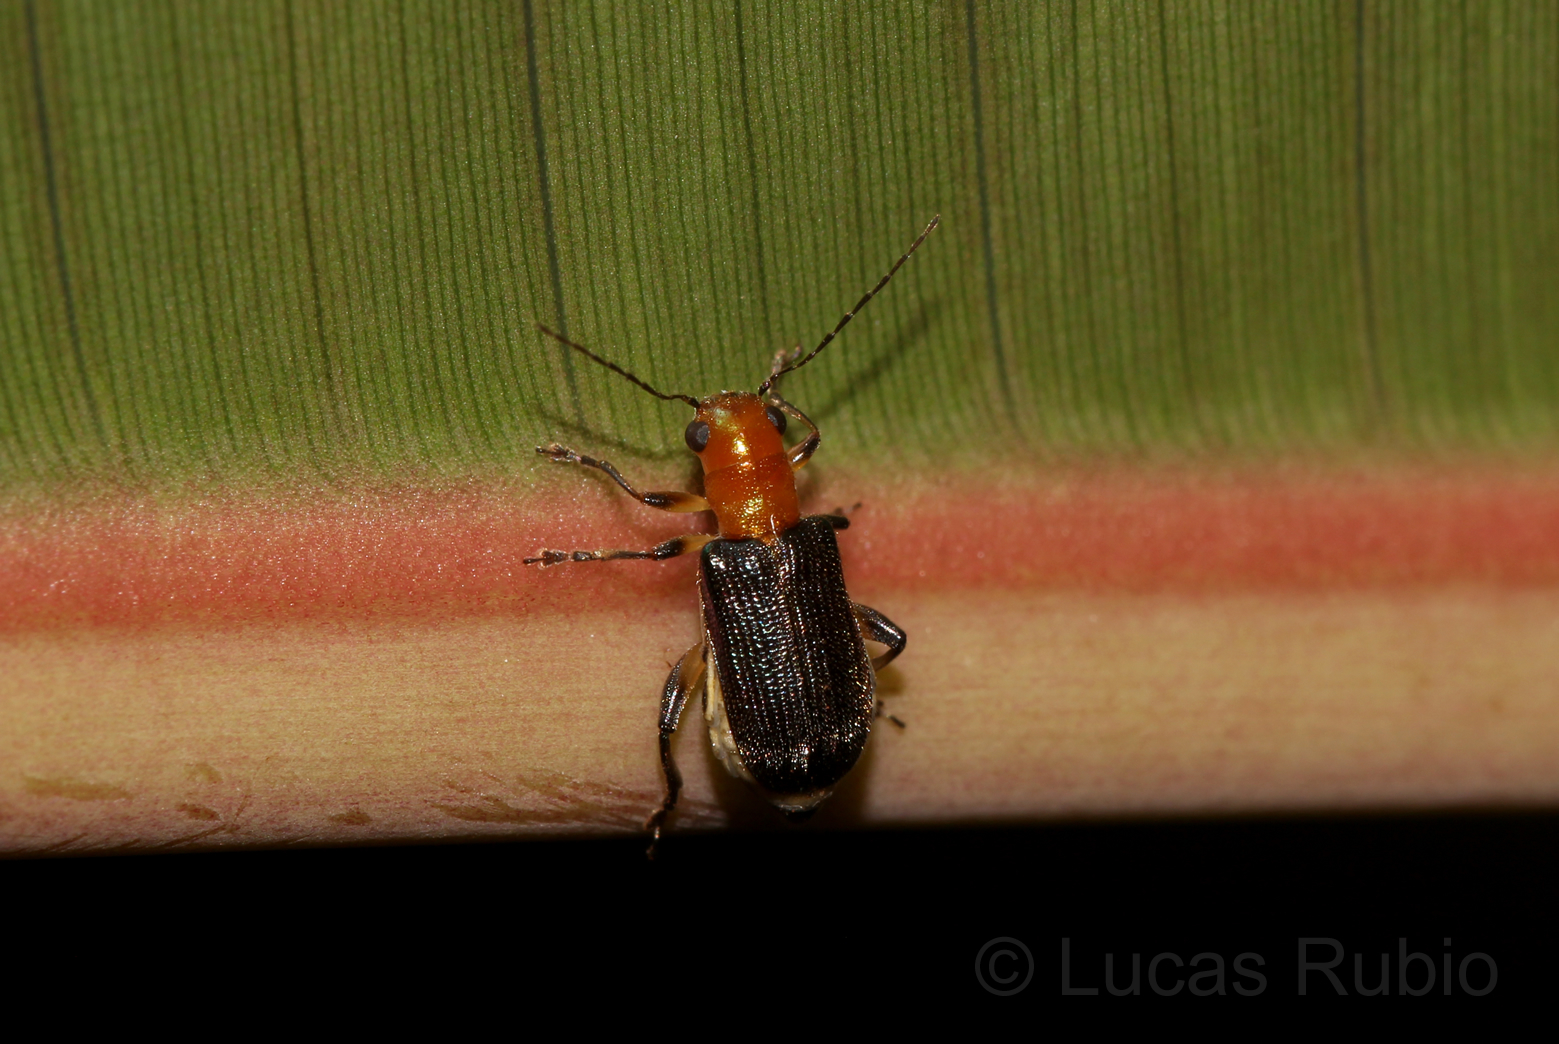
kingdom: Animalia
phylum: Arthropoda
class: Insecta
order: Coleoptera
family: Chrysomelidae
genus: Megascelis
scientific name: Megascelis
